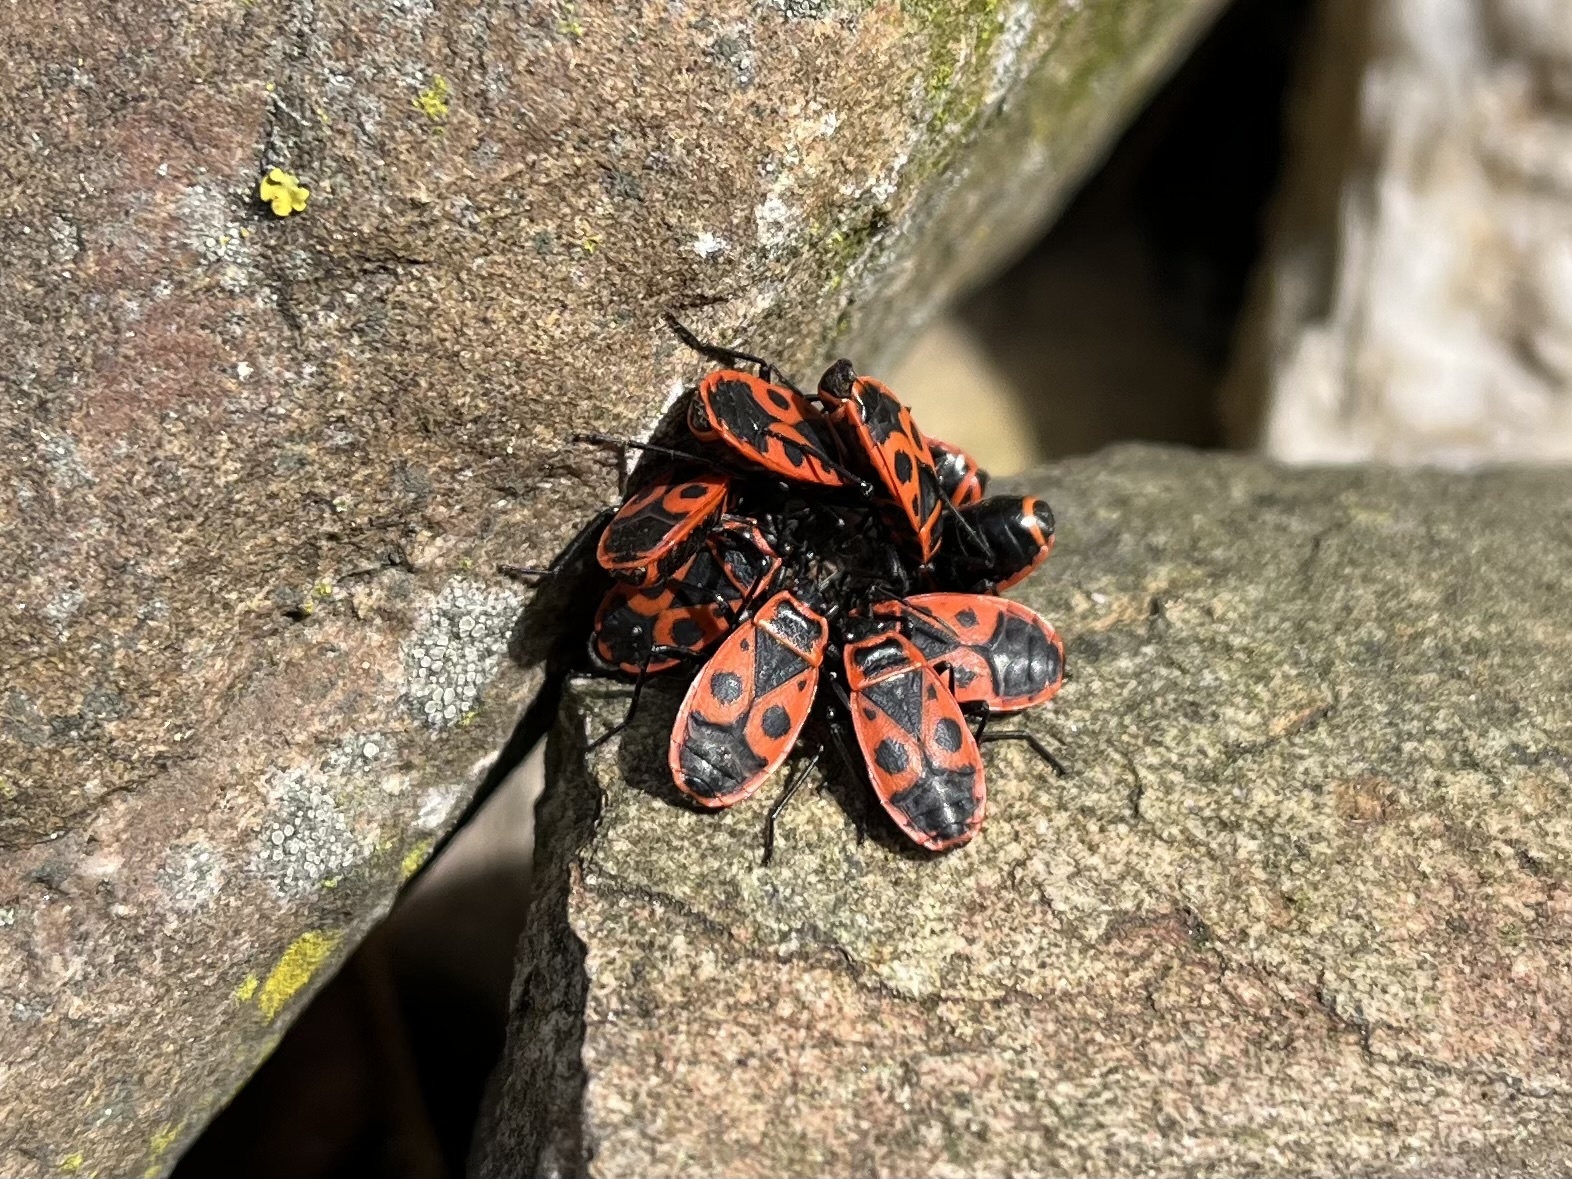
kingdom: Animalia
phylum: Arthropoda
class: Insecta
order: Hemiptera
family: Pyrrhocoridae
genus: Pyrrhocoris
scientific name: Pyrrhocoris apterus
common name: Firebug
